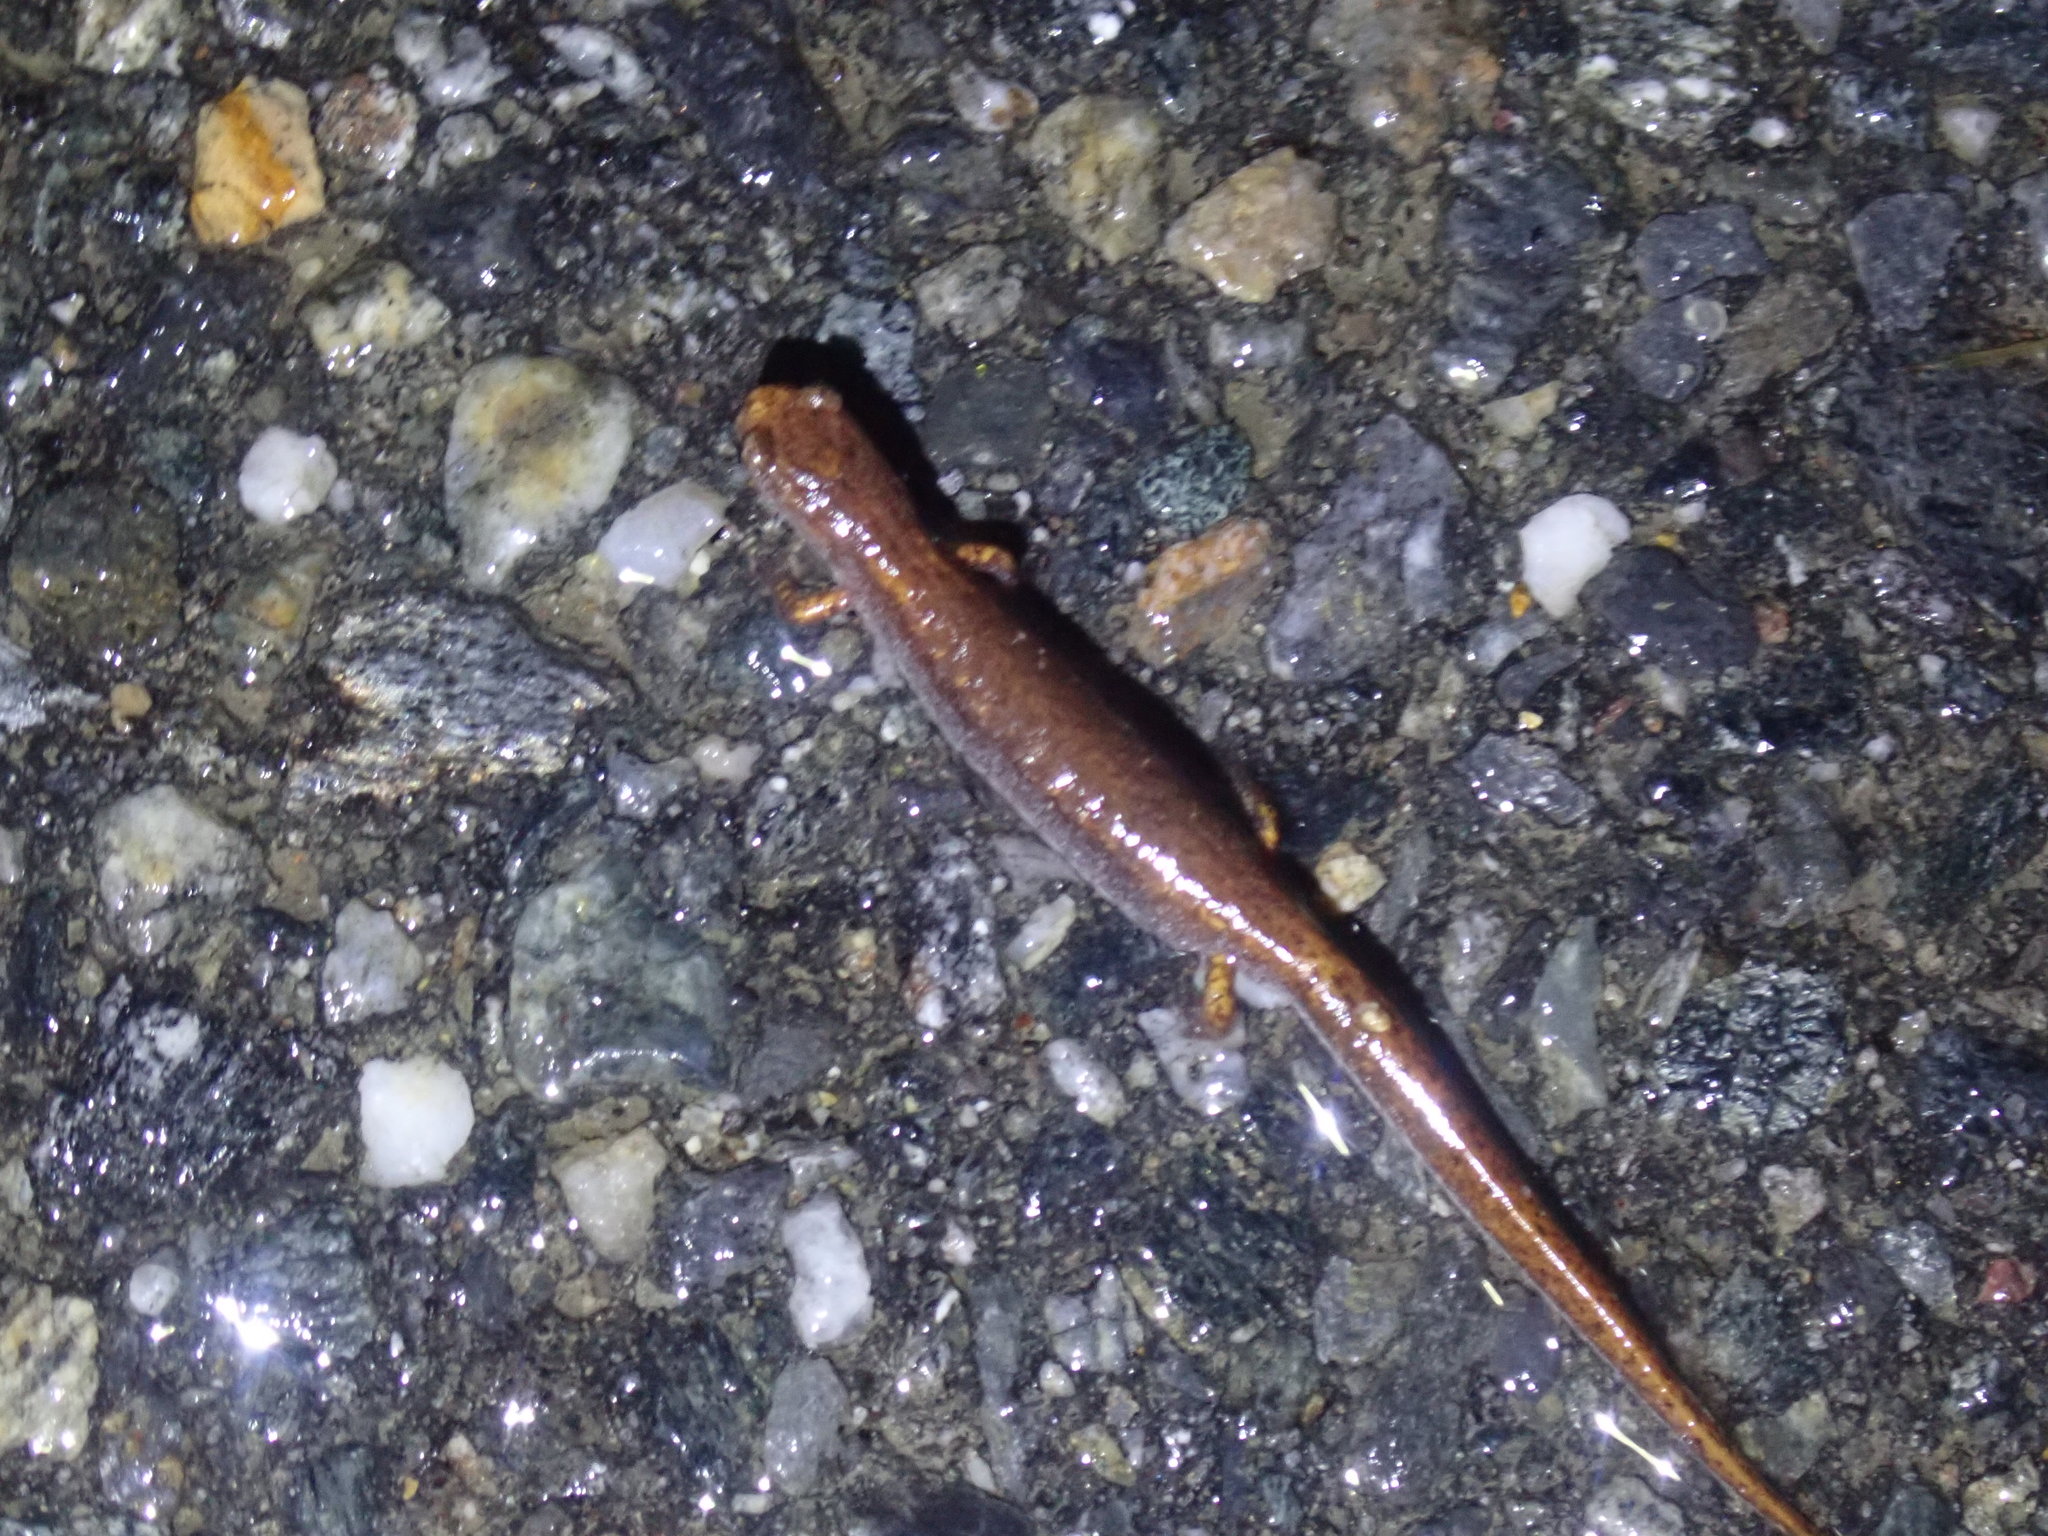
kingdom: Animalia
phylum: Chordata
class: Amphibia
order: Caudata
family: Plethodontidae
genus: Hemidactylium
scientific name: Hemidactylium scutatum
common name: Four-toed salamander
